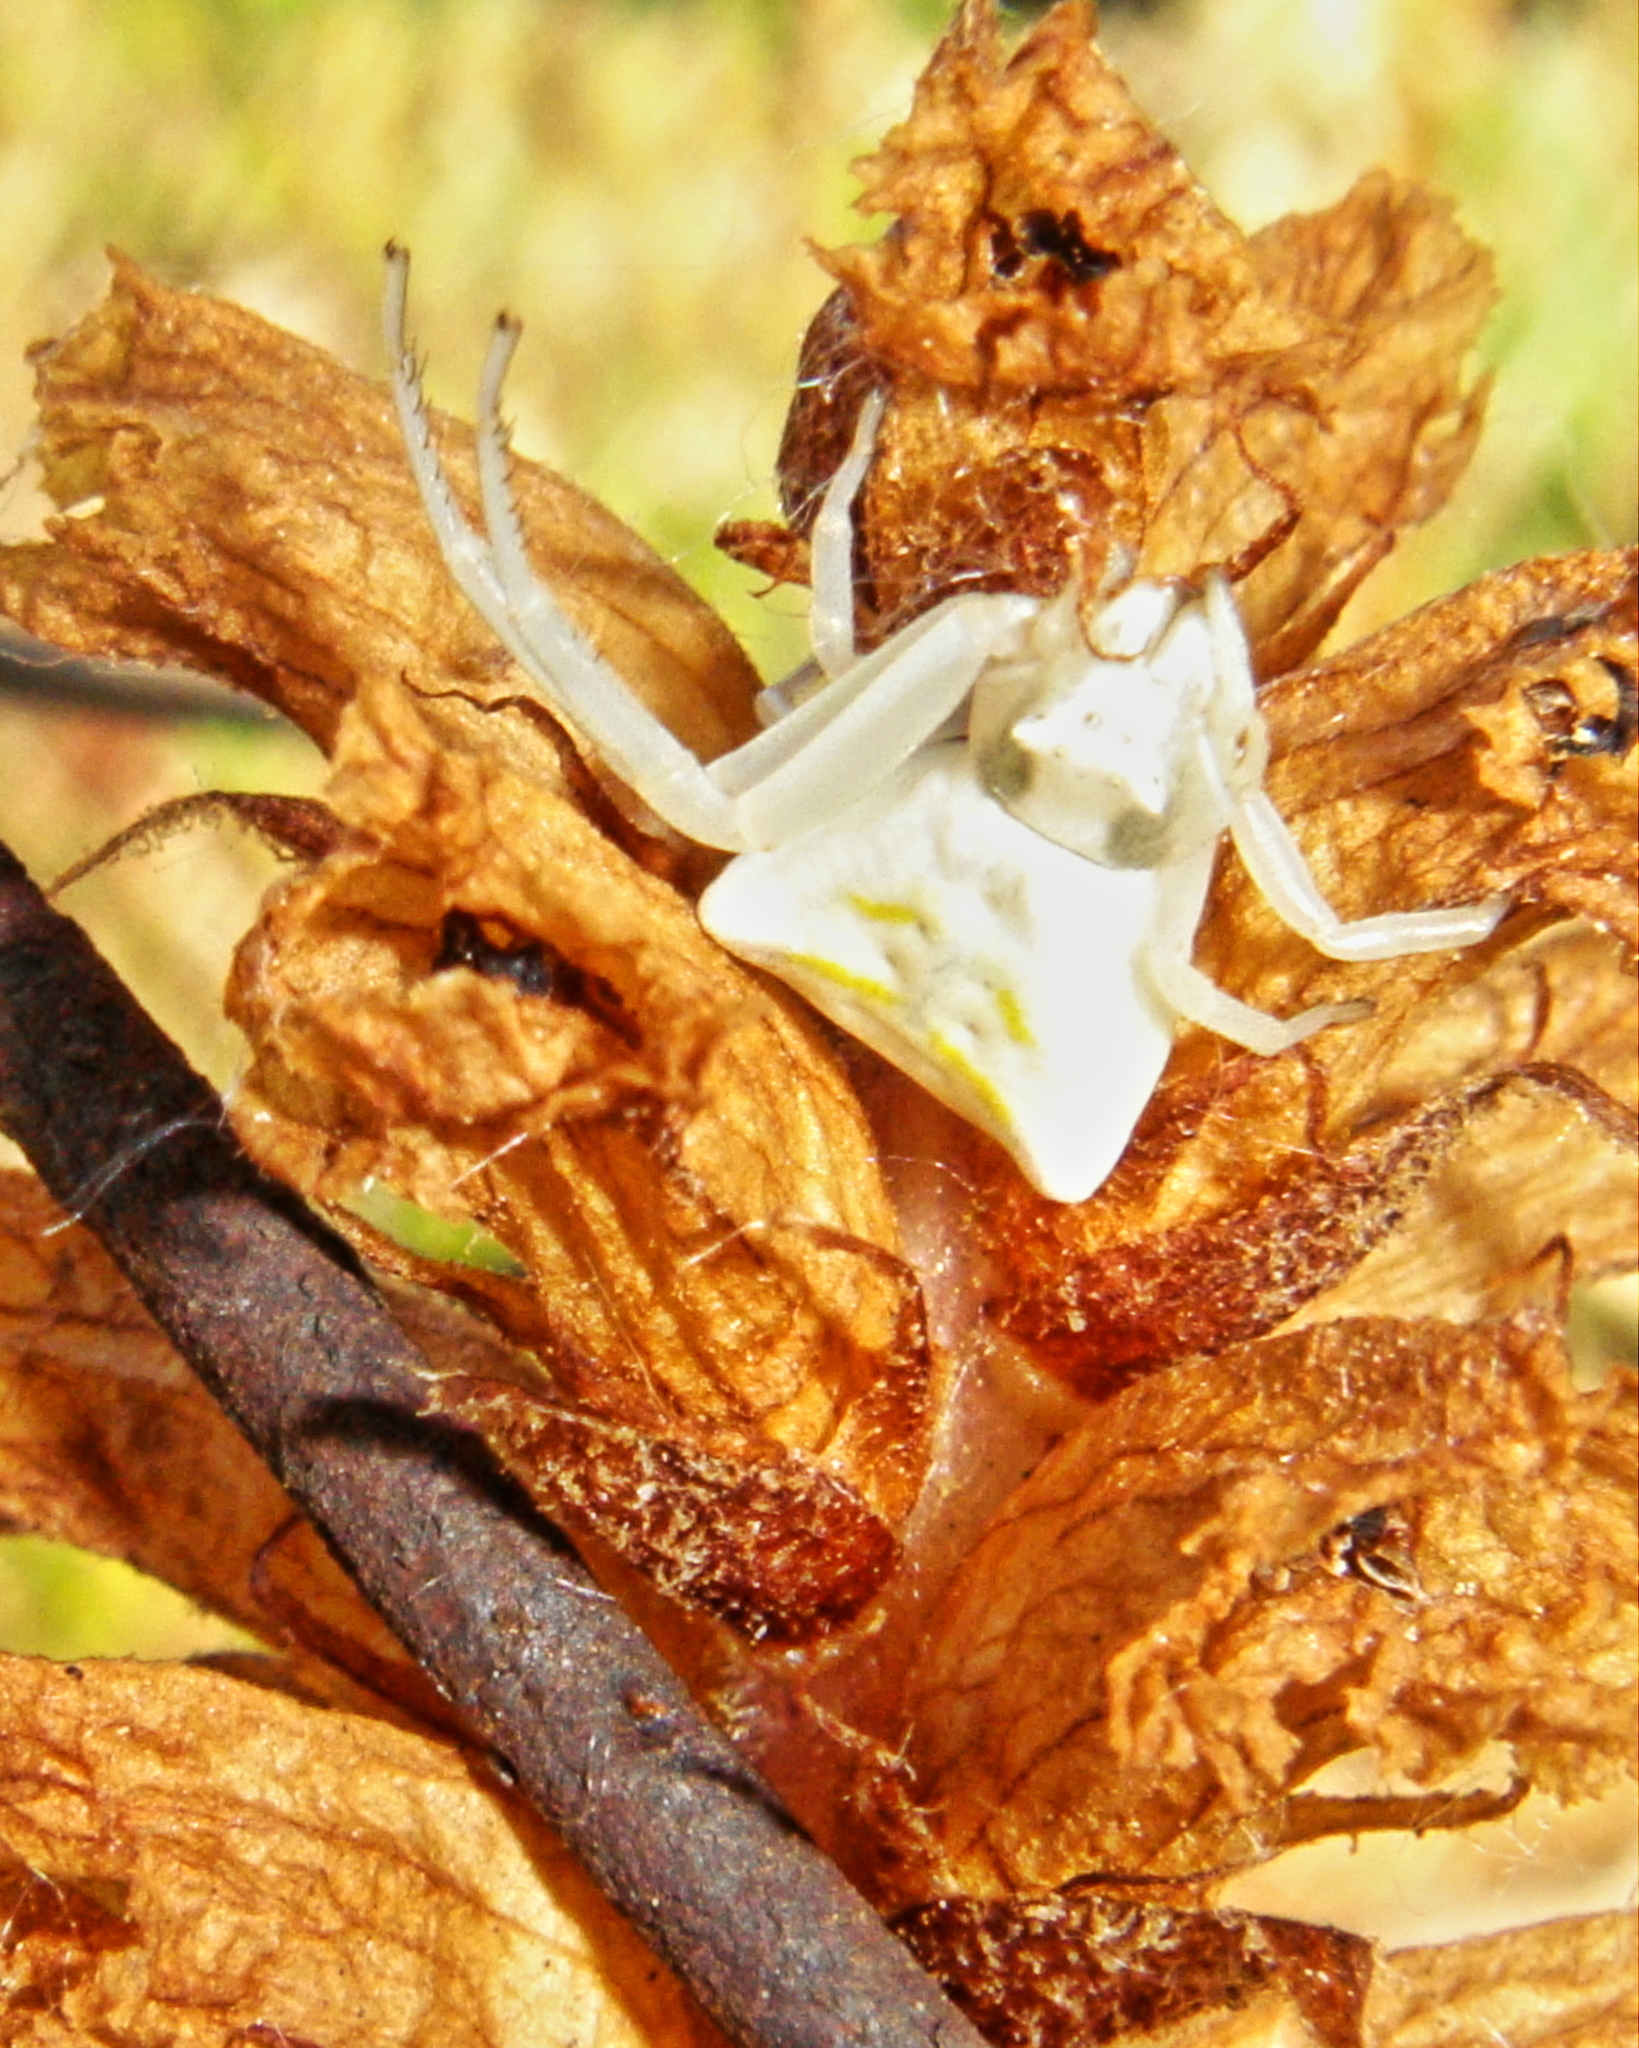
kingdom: Animalia
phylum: Arthropoda
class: Arachnida
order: Araneae
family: Thomisidae
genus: Thomisus
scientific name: Thomisus onustus
